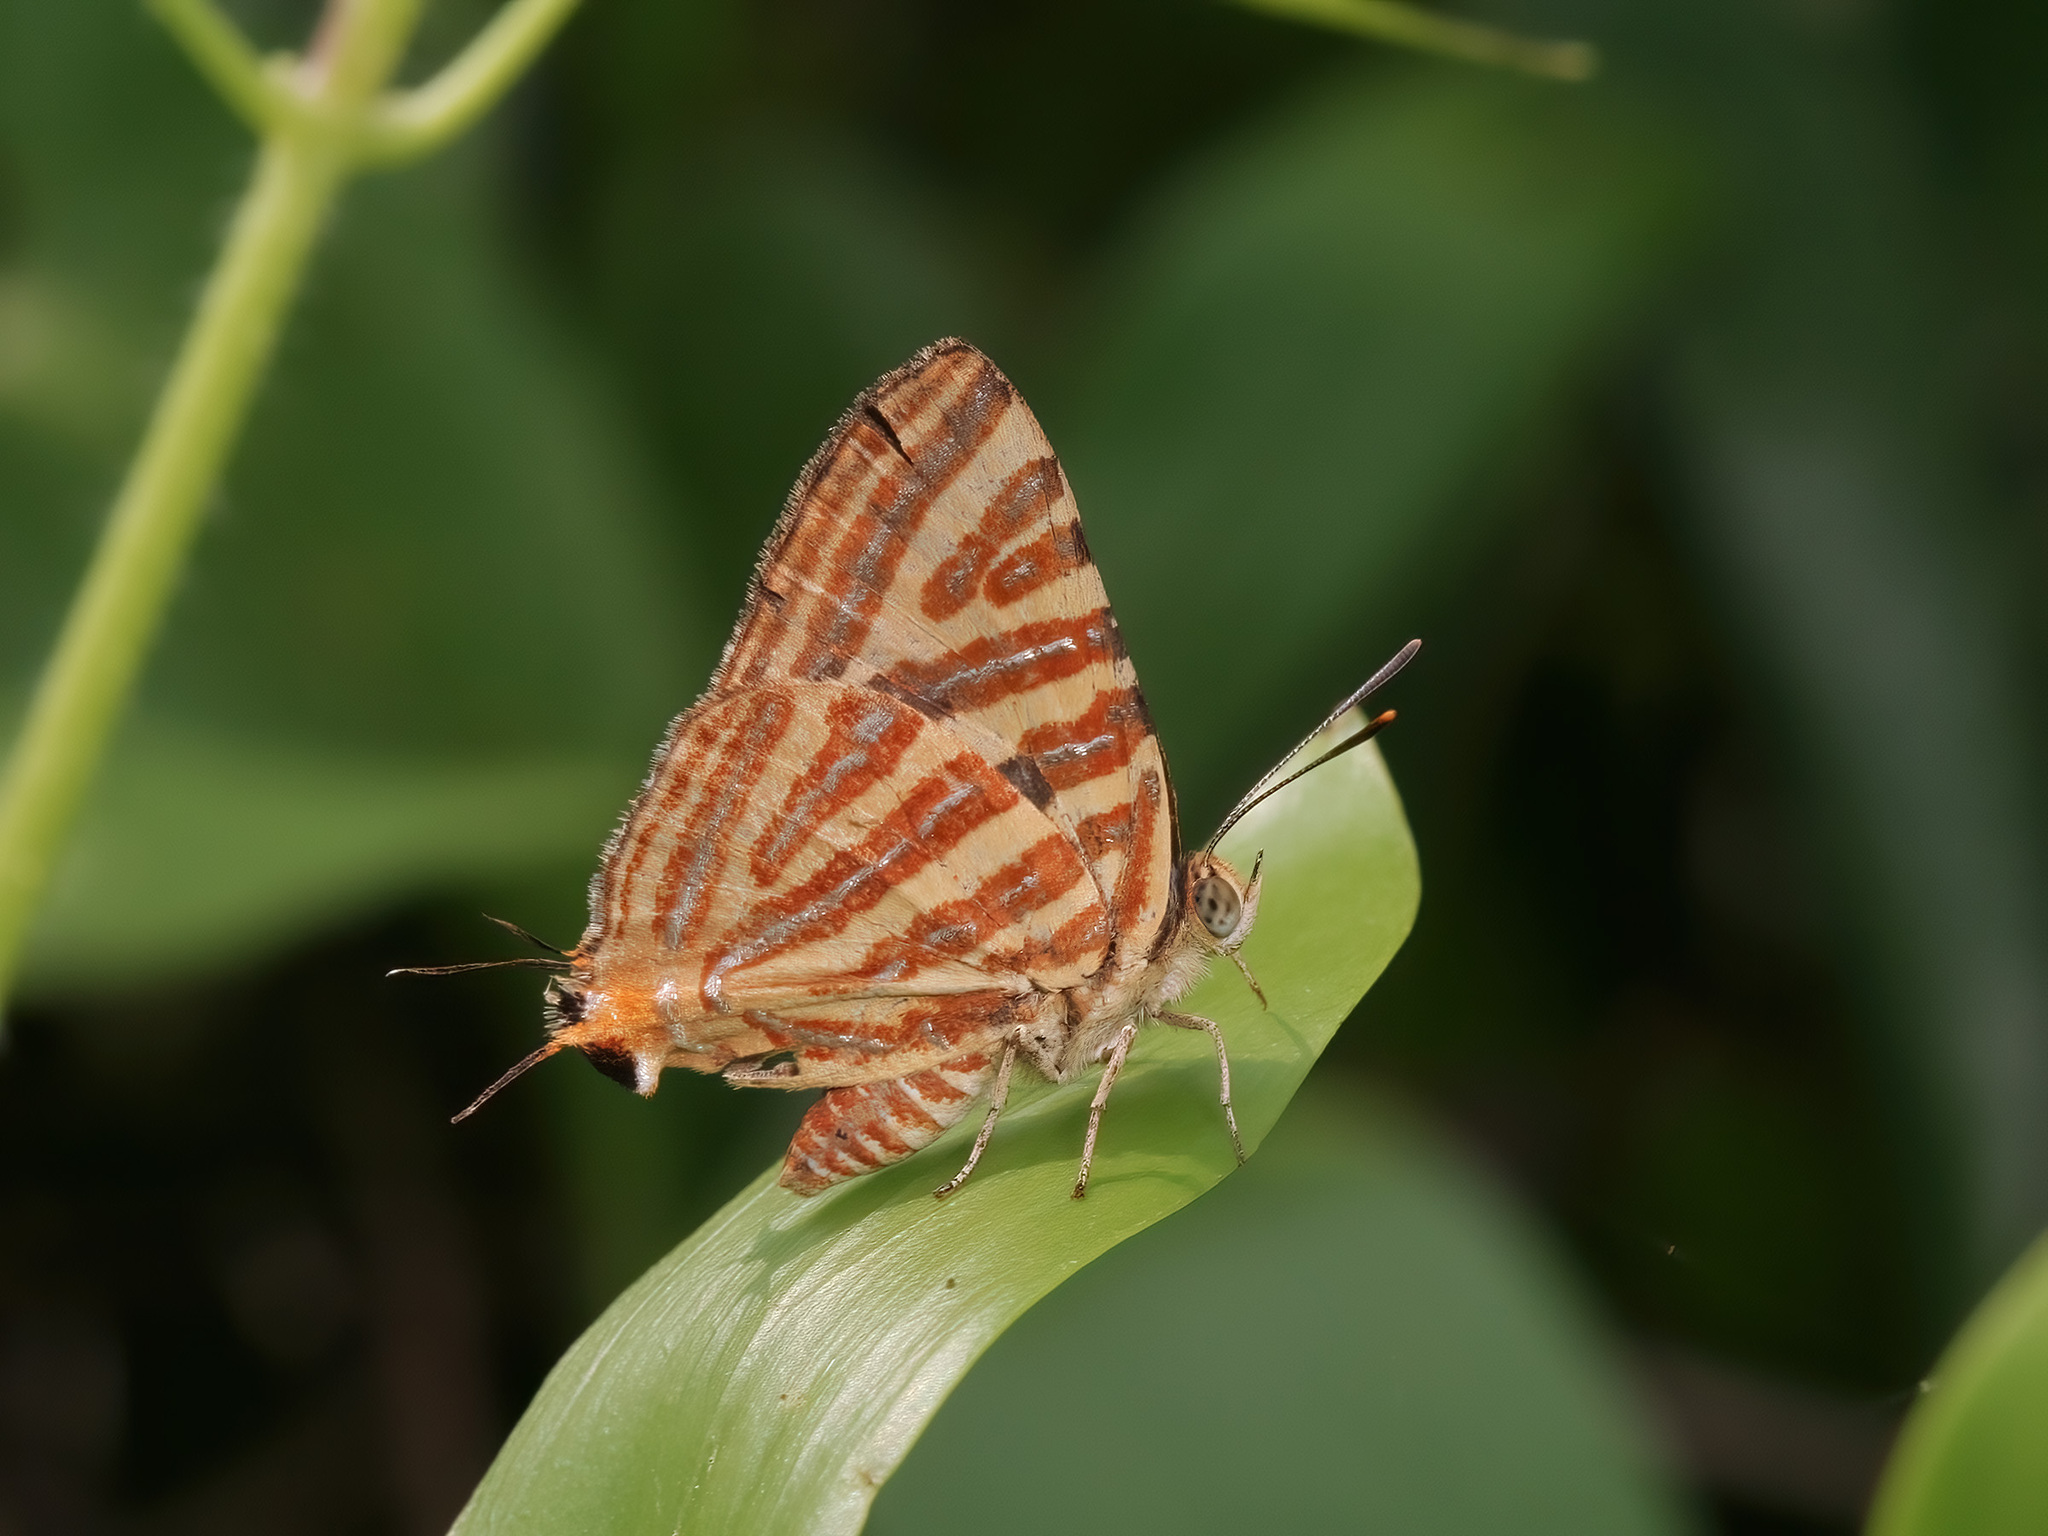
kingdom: Animalia
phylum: Arthropoda
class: Insecta
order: Lepidoptera
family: Lycaenidae
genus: Cigaritis
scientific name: Cigaritis lohita
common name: Long-banded silverline
